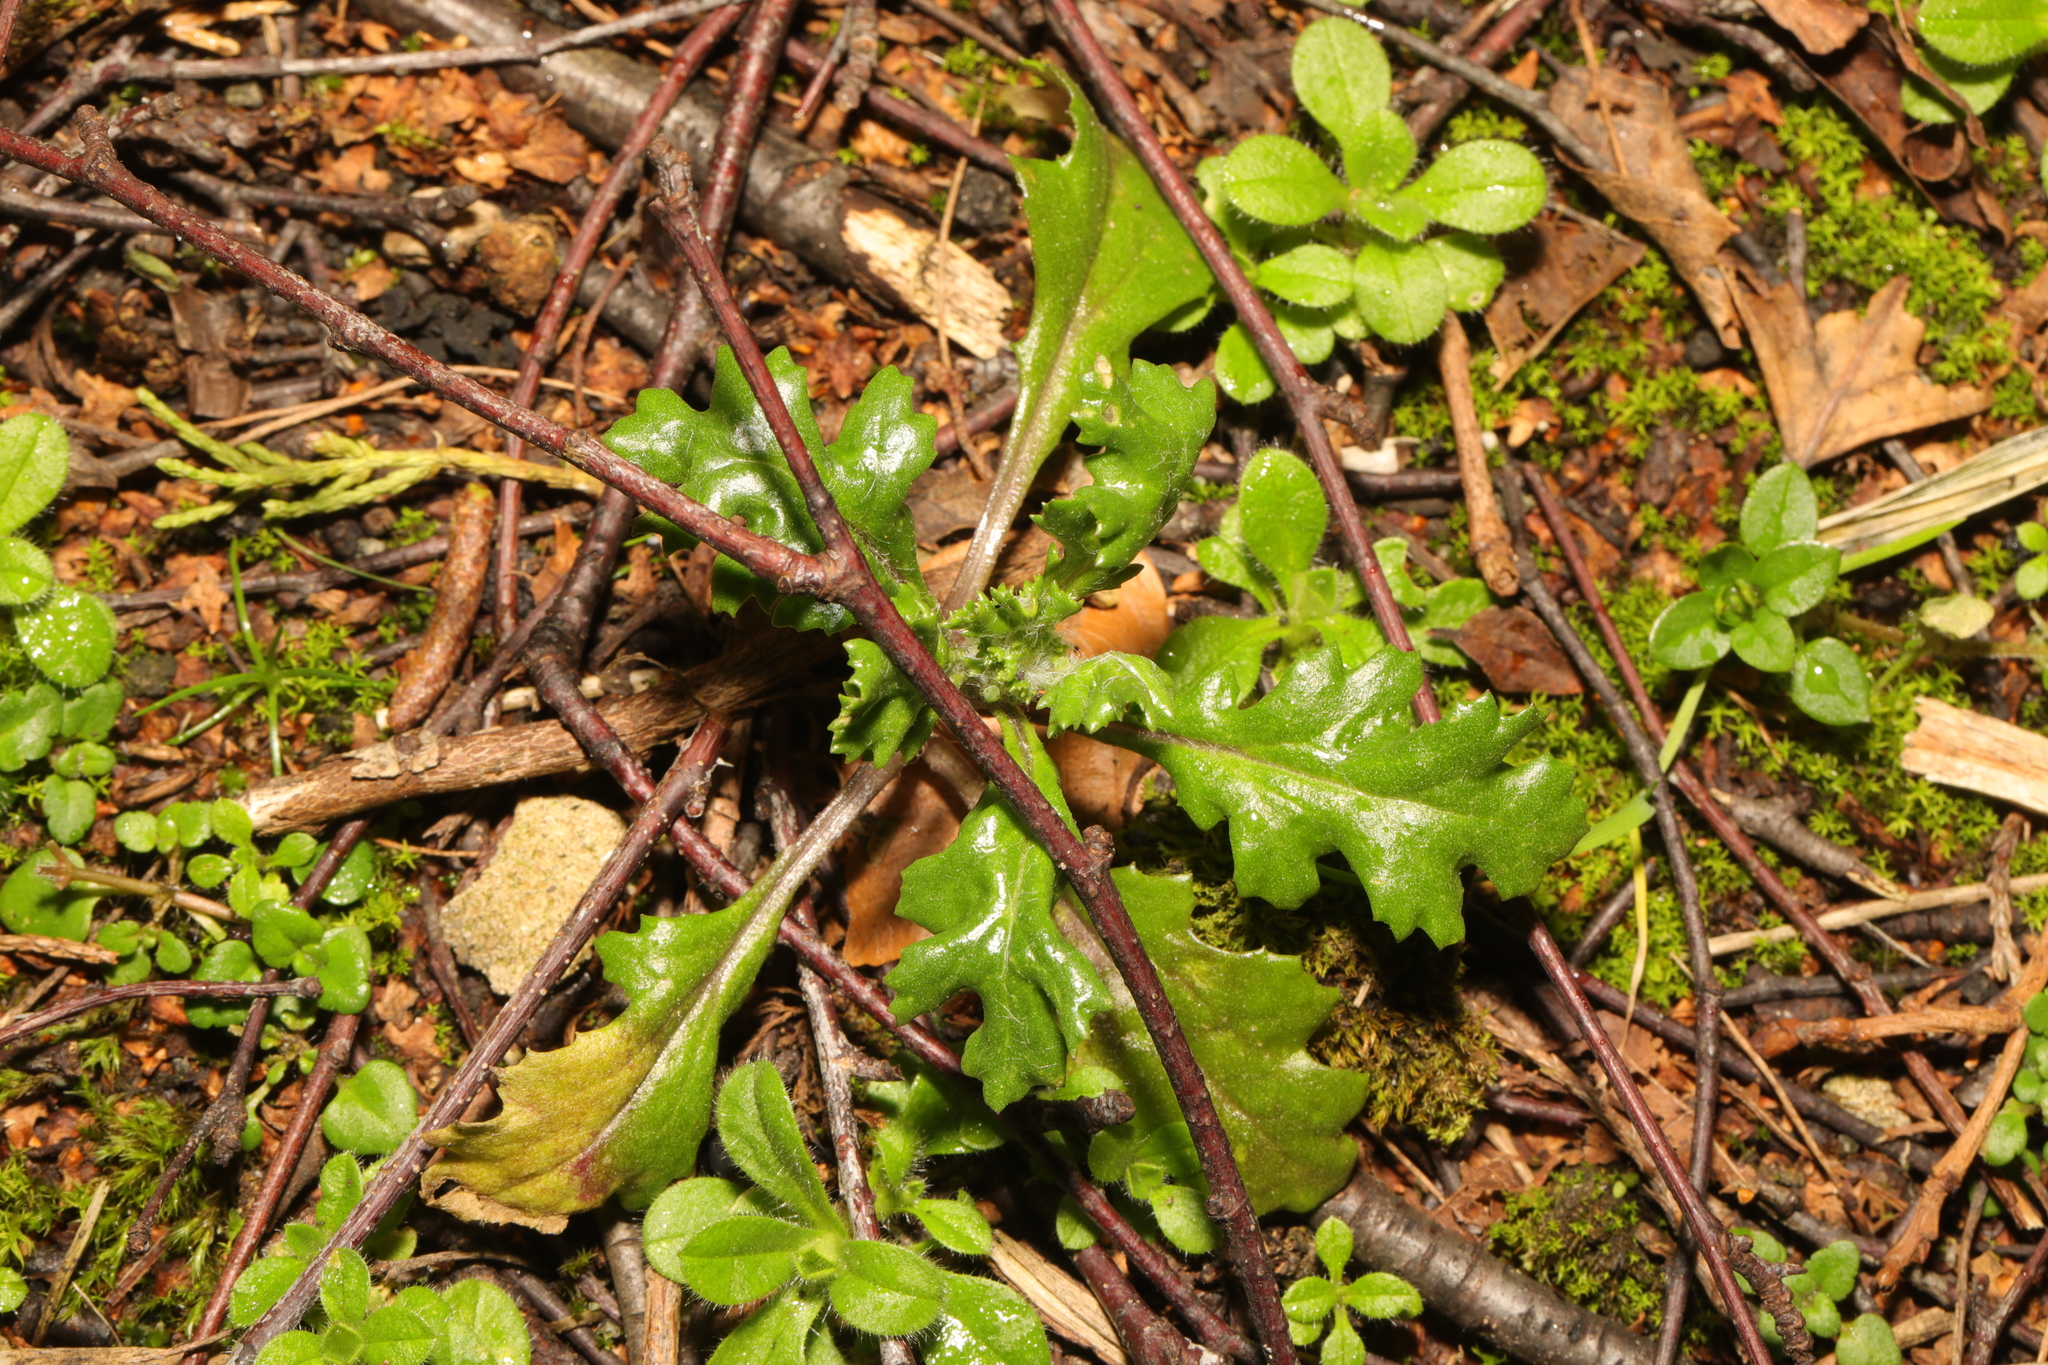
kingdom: Plantae
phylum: Tracheophyta
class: Magnoliopsida
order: Asterales
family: Asteraceae
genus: Senecio
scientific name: Senecio vulgaris
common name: Old-man-in-the-spring
